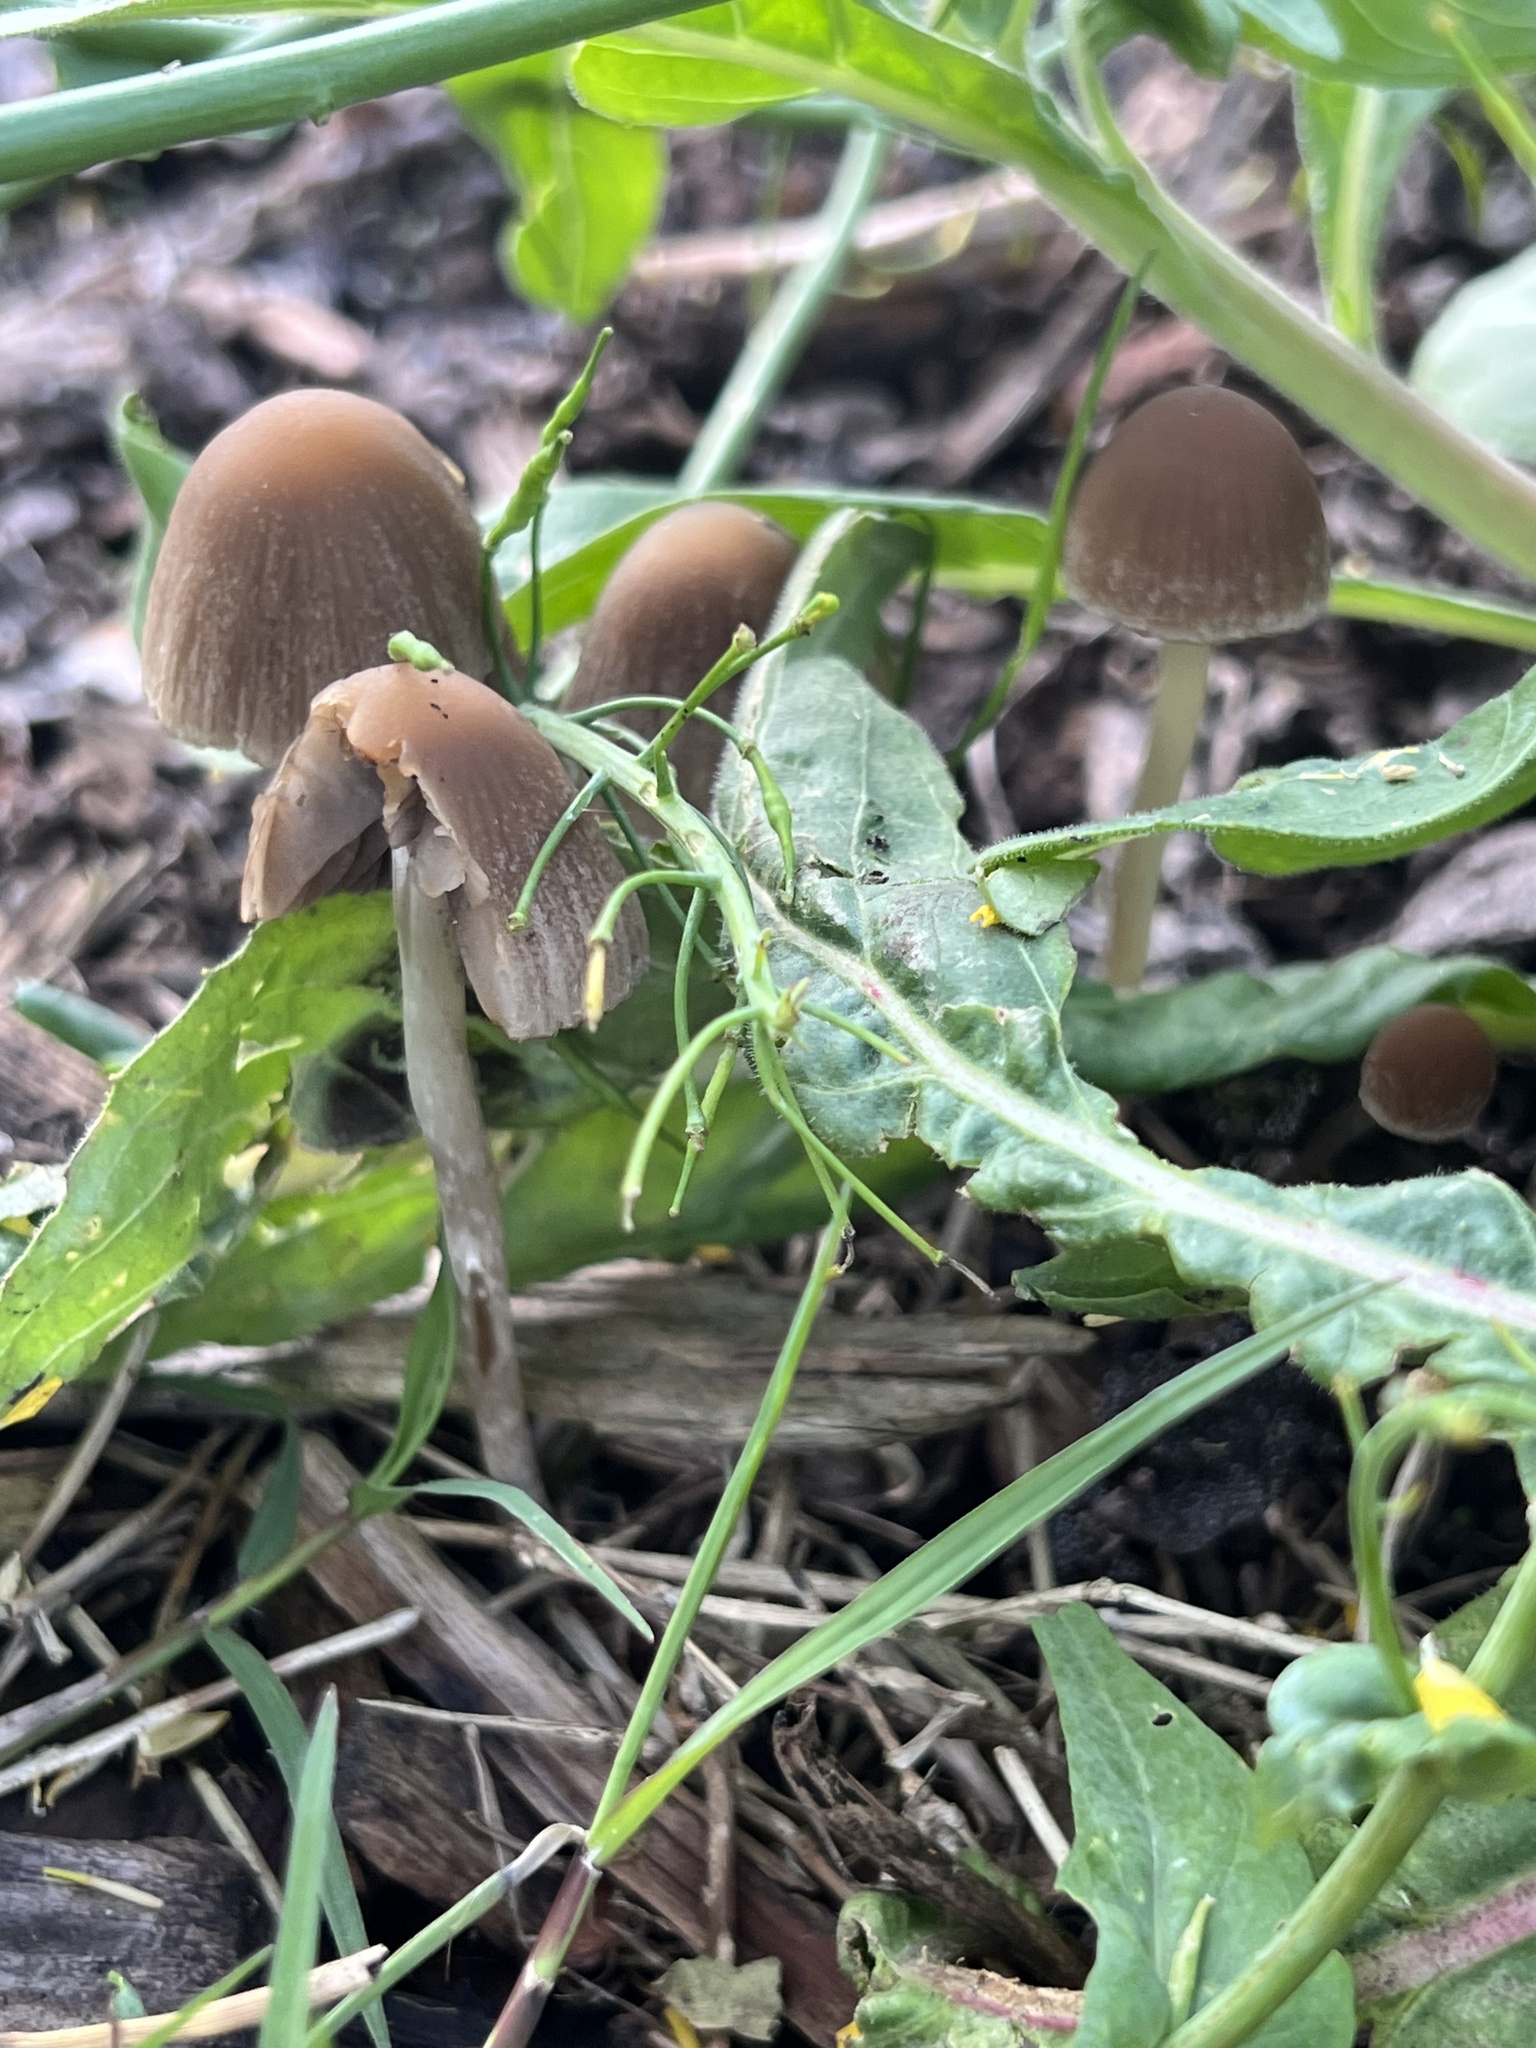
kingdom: Fungi
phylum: Basidiomycota
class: Agaricomycetes
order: Agaricales
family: Psathyrellaceae
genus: Psathyrella
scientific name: Psathyrella longipes
